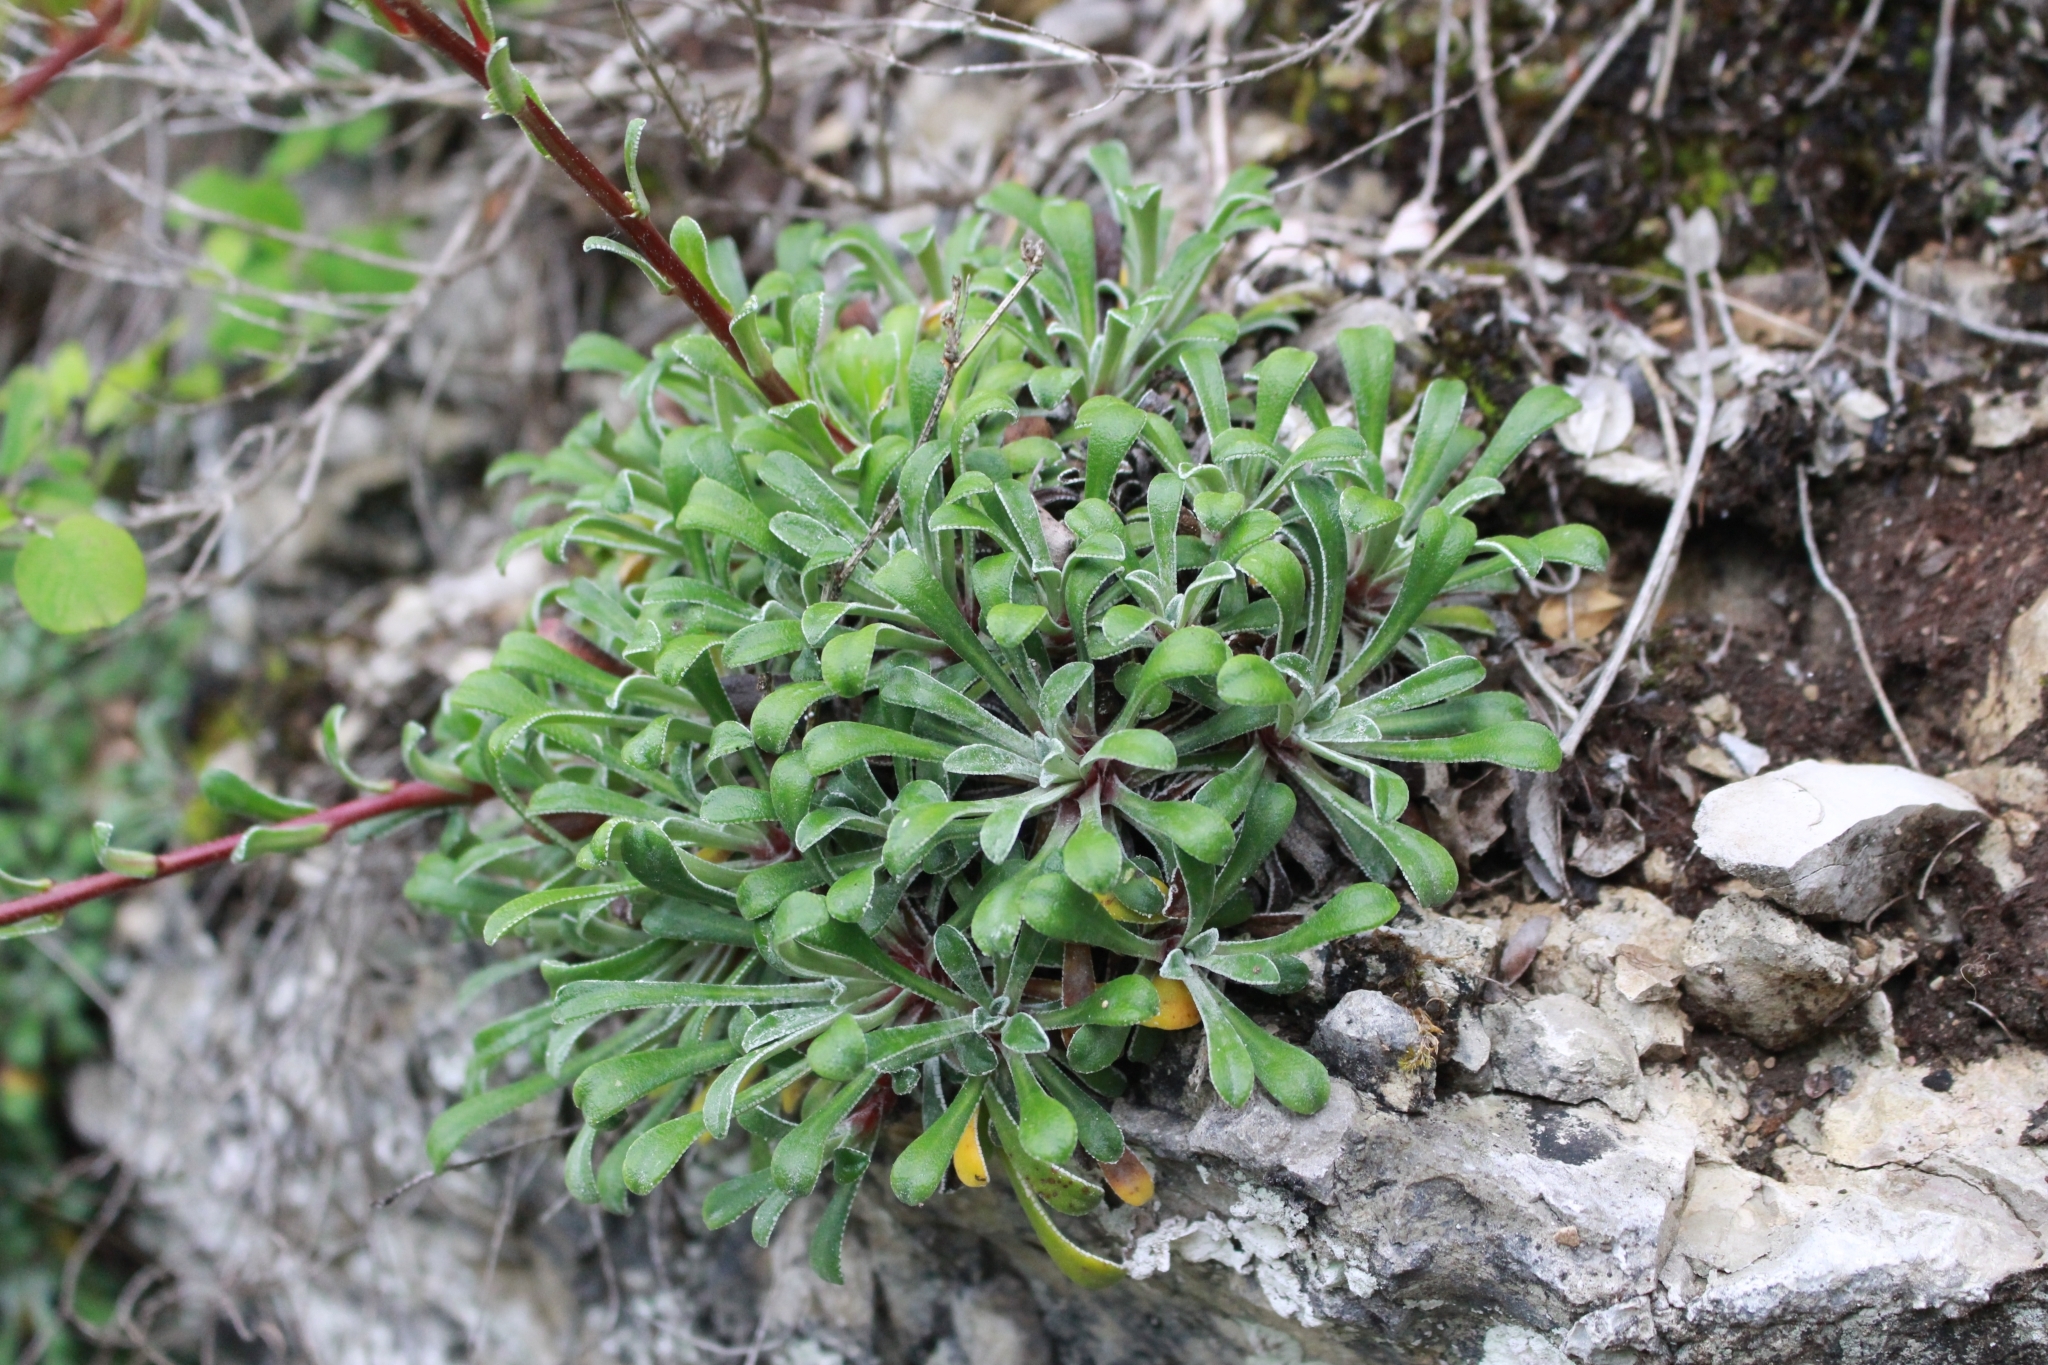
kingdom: Plantae
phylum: Tracheophyta
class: Magnoliopsida
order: Saxifragales
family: Saxifragaceae
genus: Saxifraga
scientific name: Saxifraga callosa
